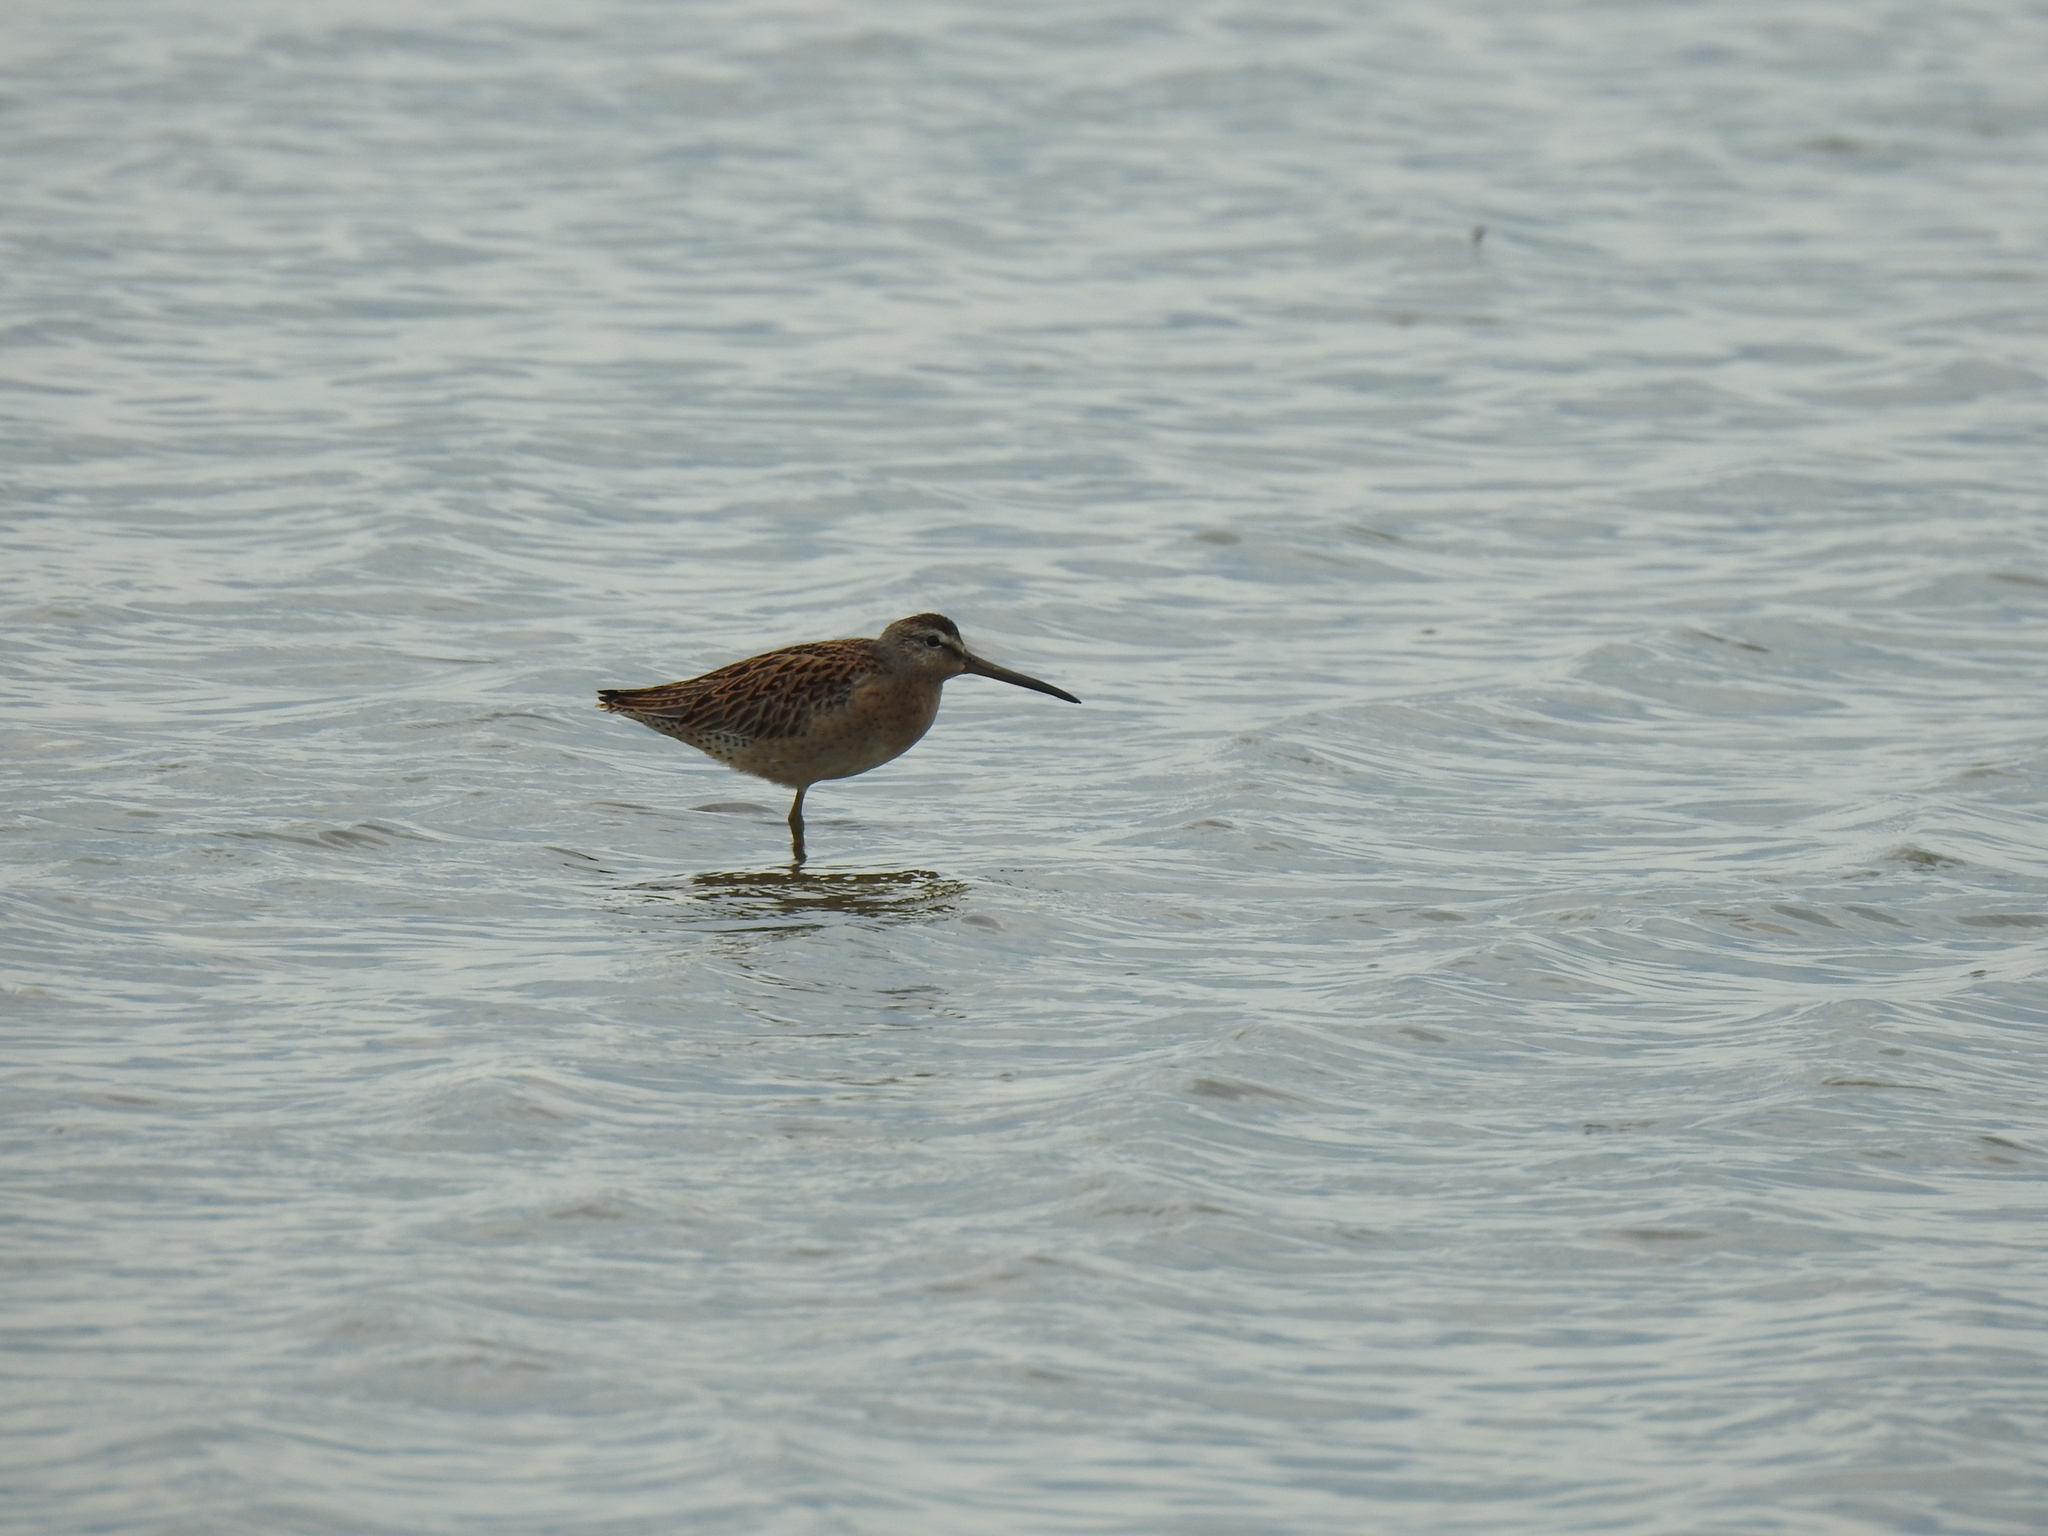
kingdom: Animalia
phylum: Chordata
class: Aves
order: Charadriiformes
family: Scolopacidae
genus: Limnodromus
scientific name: Limnodromus griseus
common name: Short-billed dowitcher
